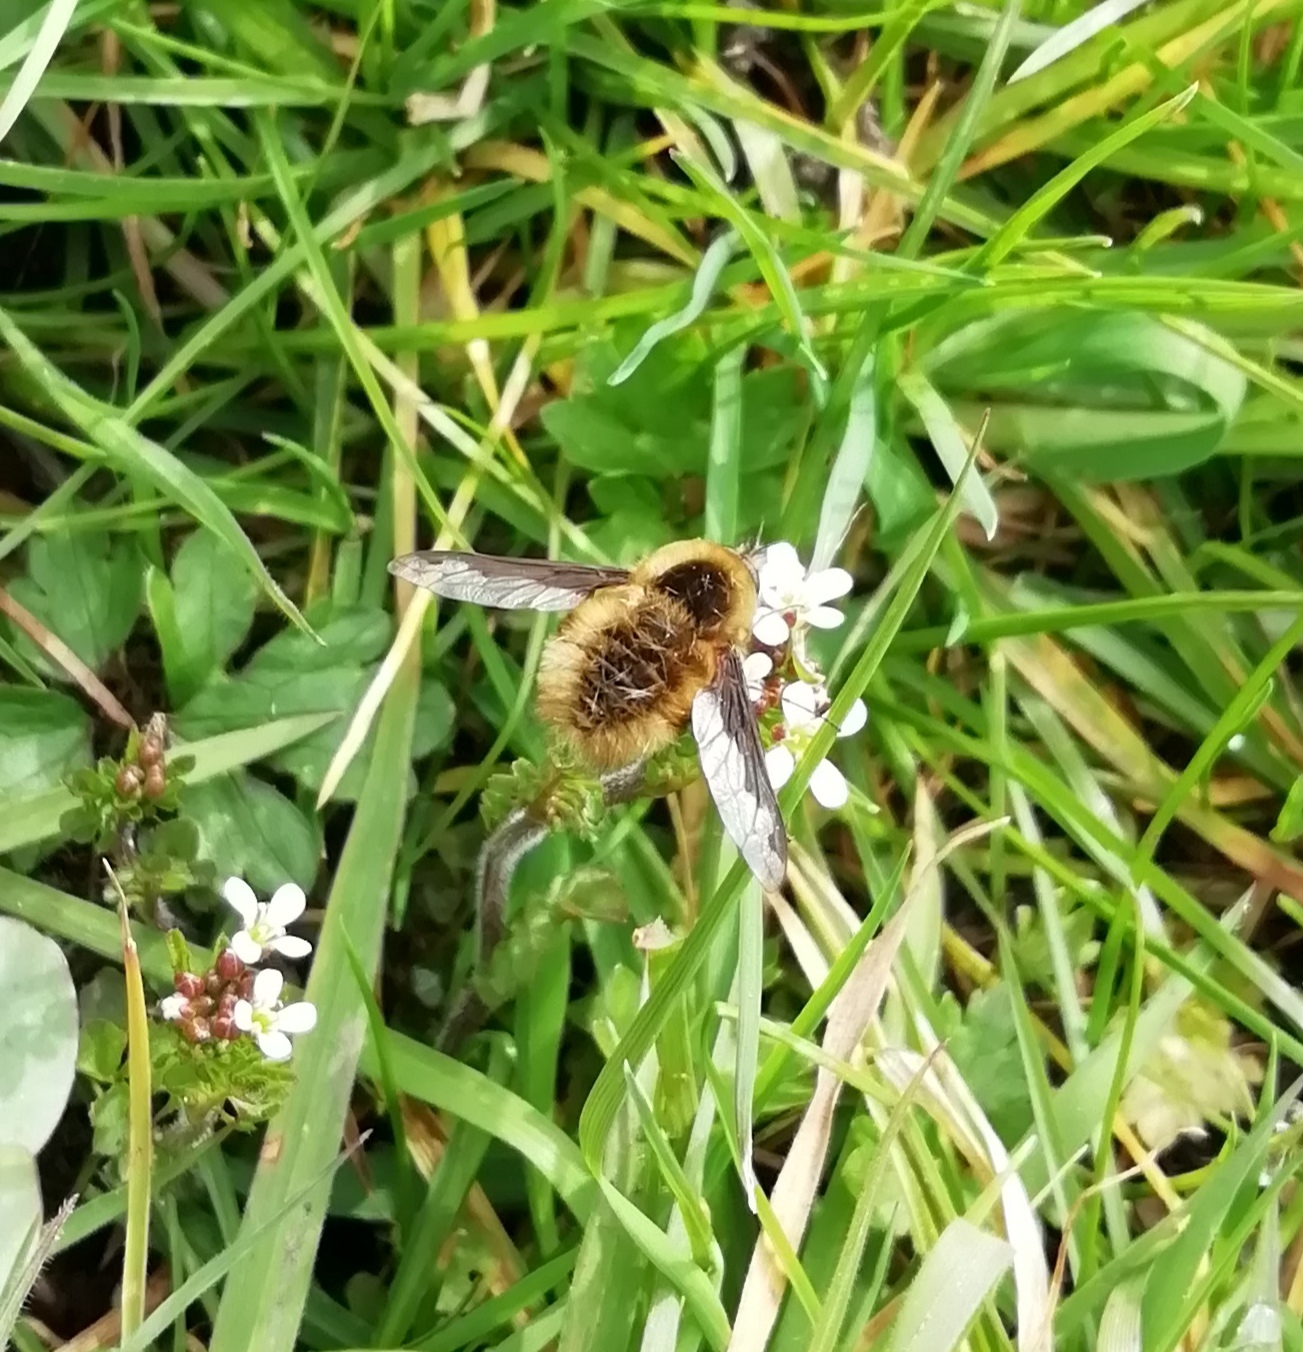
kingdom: Animalia
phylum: Arthropoda
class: Insecta
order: Diptera
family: Bombyliidae
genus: Bombylius
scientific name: Bombylius major
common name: Bee fly
